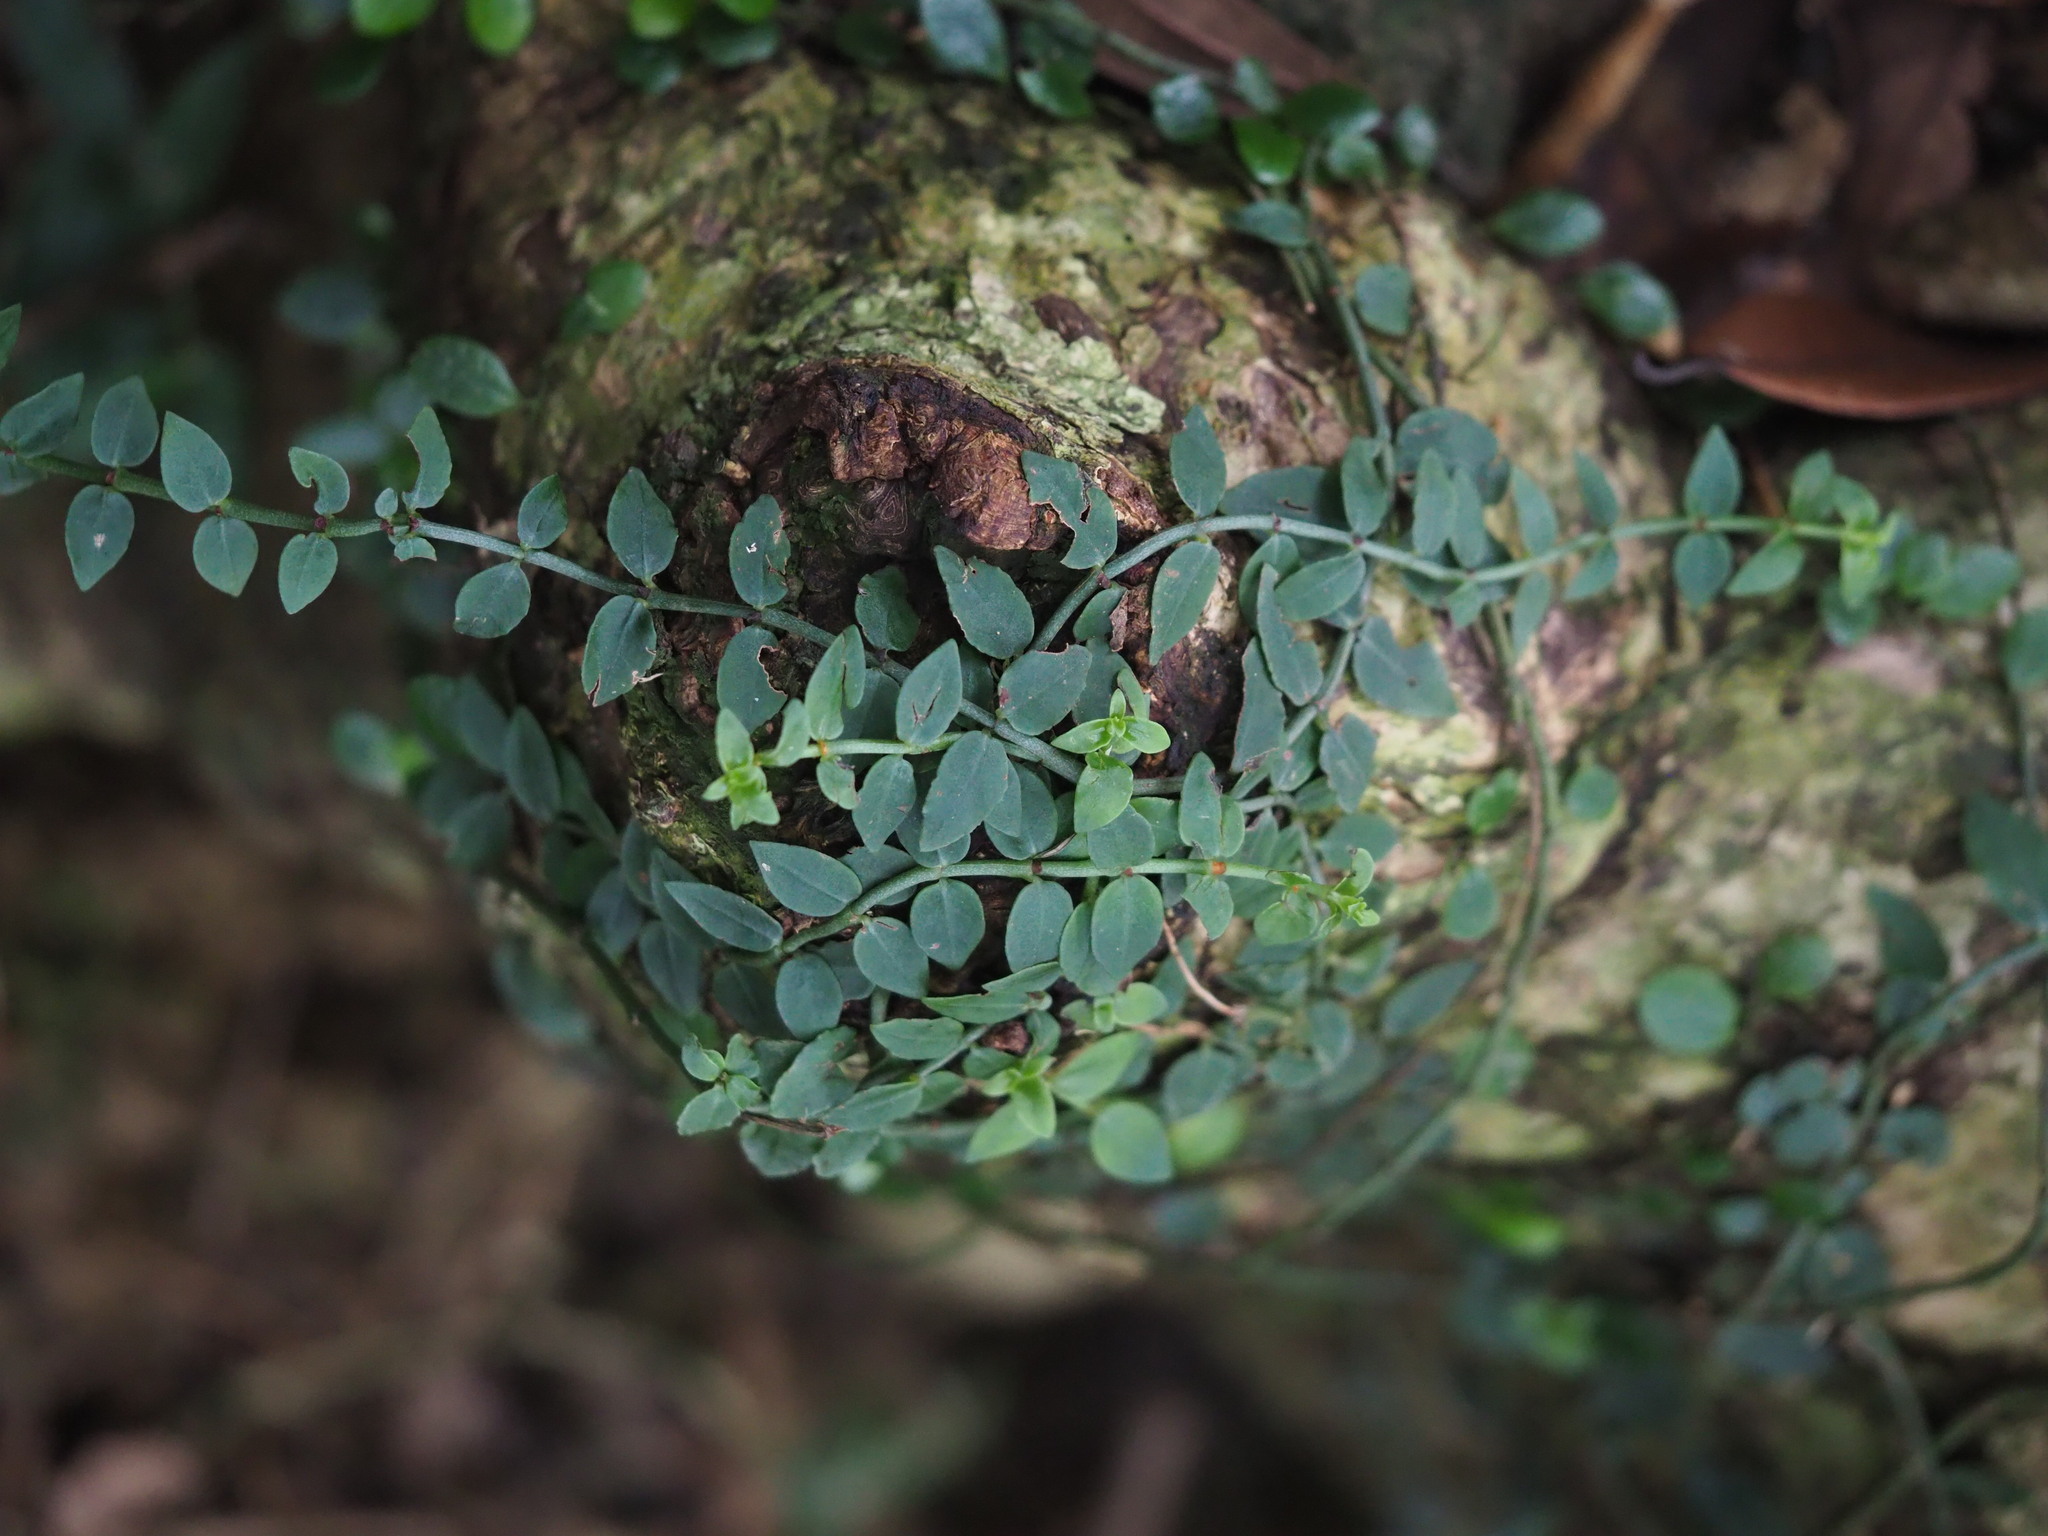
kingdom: Plantae
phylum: Tracheophyta
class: Magnoliopsida
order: Gentianales
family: Rubiaceae
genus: Psychotria
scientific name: Psychotria serpens
